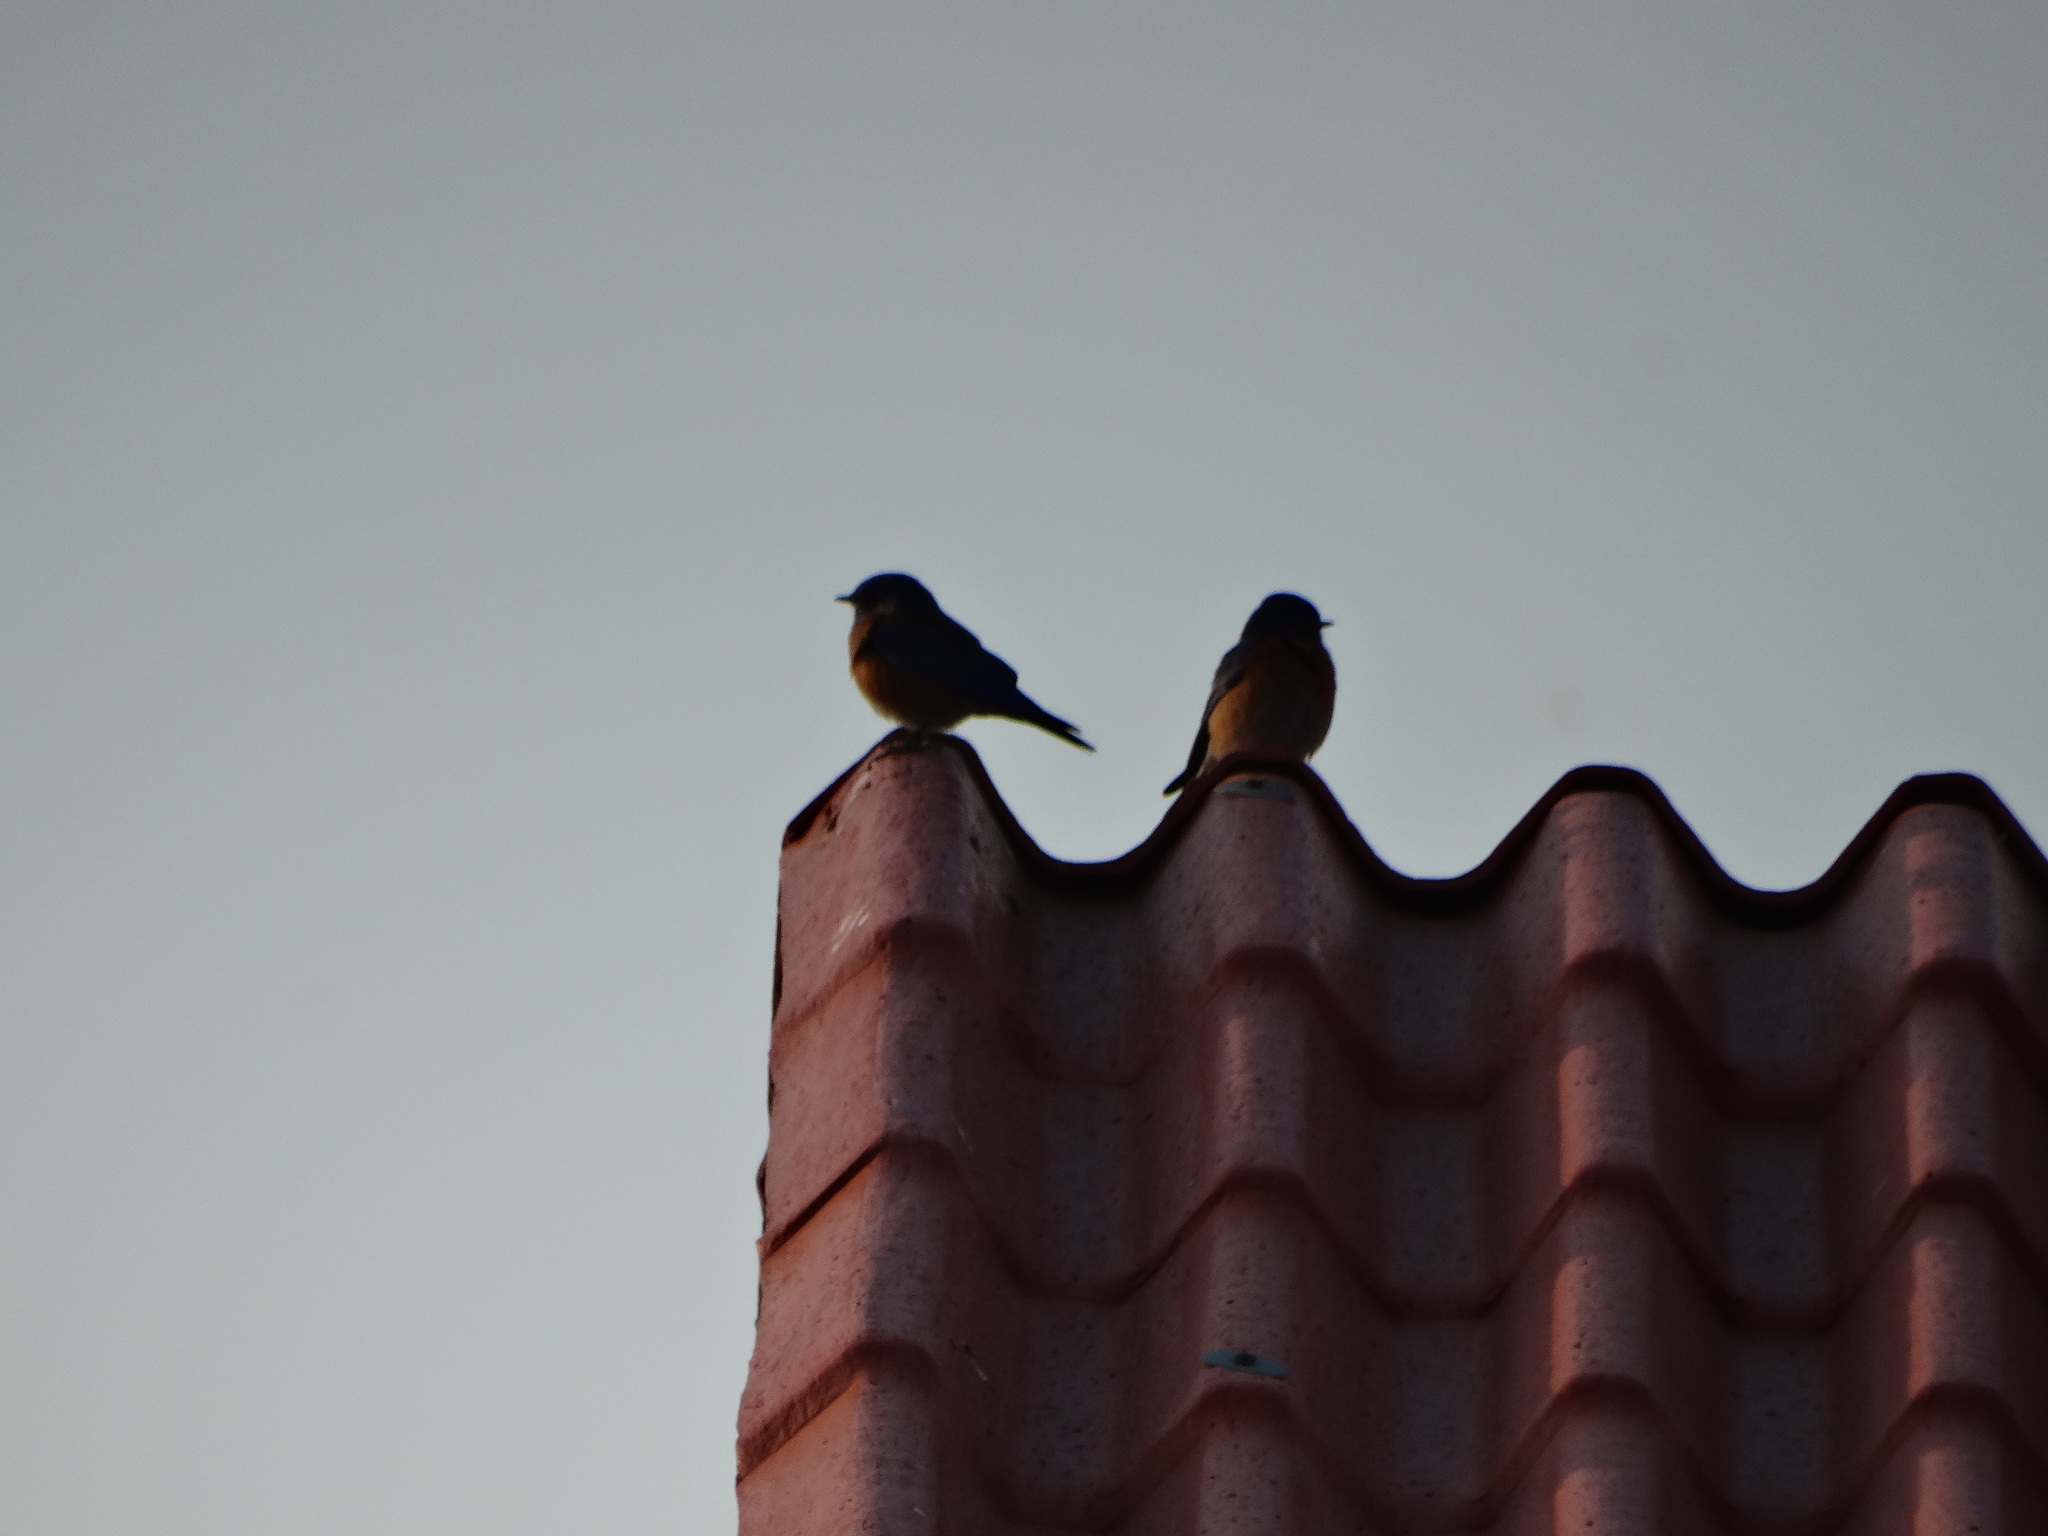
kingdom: Animalia
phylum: Chordata
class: Aves
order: Passeriformes
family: Turdidae
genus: Sialia
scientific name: Sialia mexicana
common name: Western bluebird
